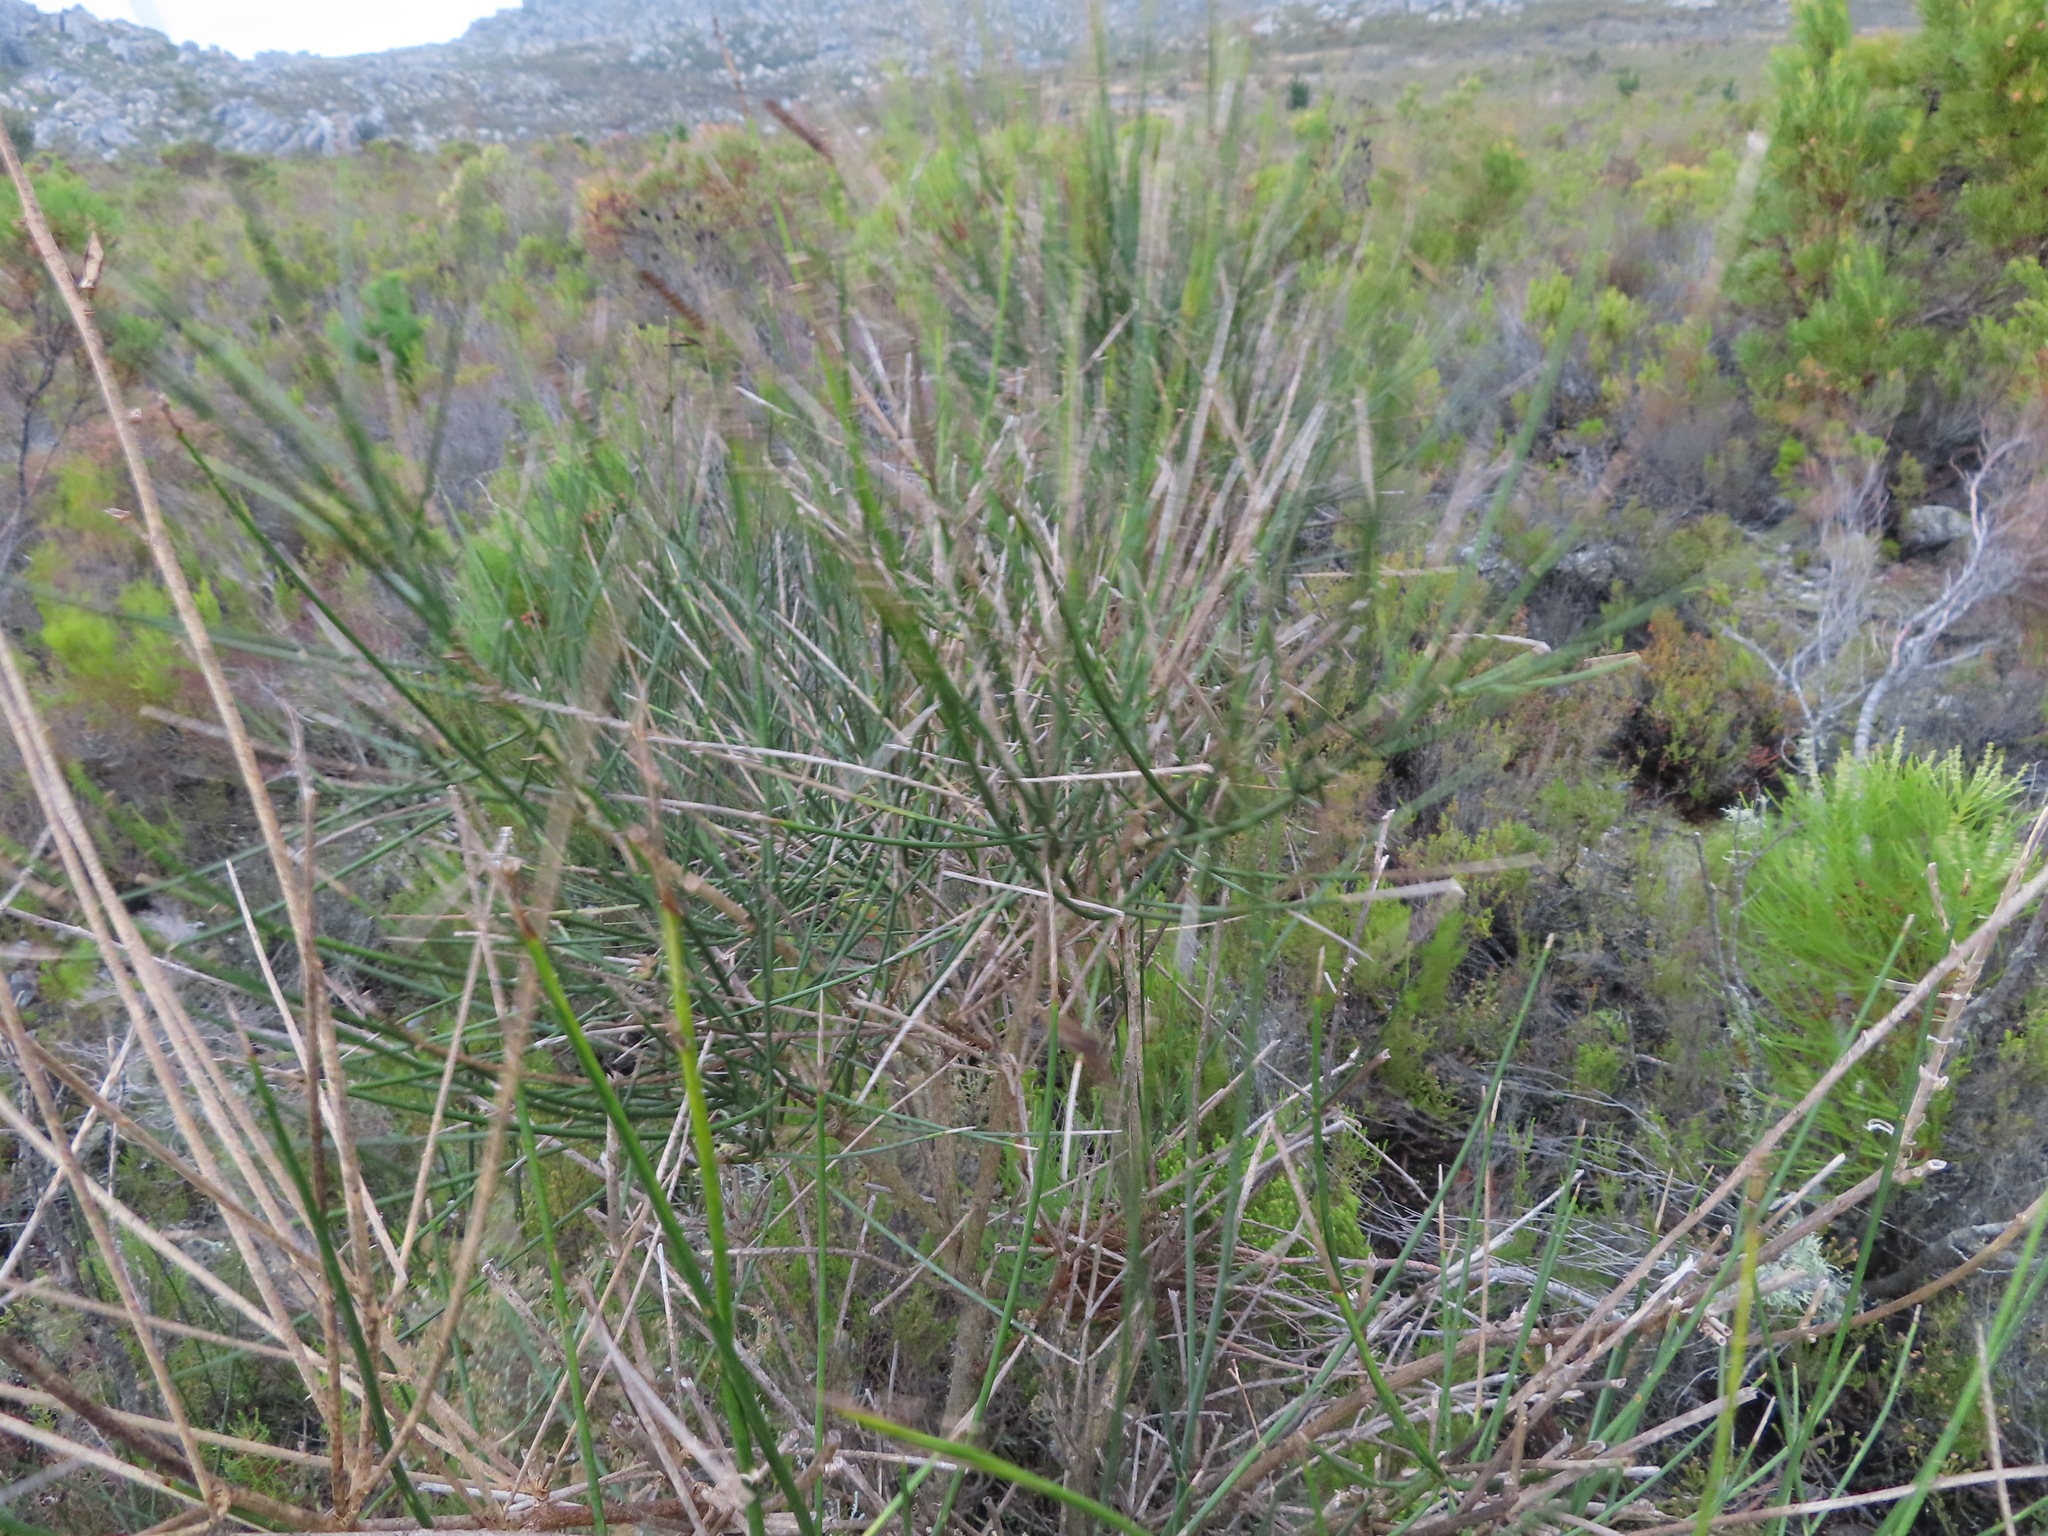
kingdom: Plantae
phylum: Tracheophyta
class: Magnoliopsida
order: Fabales
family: Fabaceae
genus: Spartium
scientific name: Spartium junceum
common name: Spanish broom
